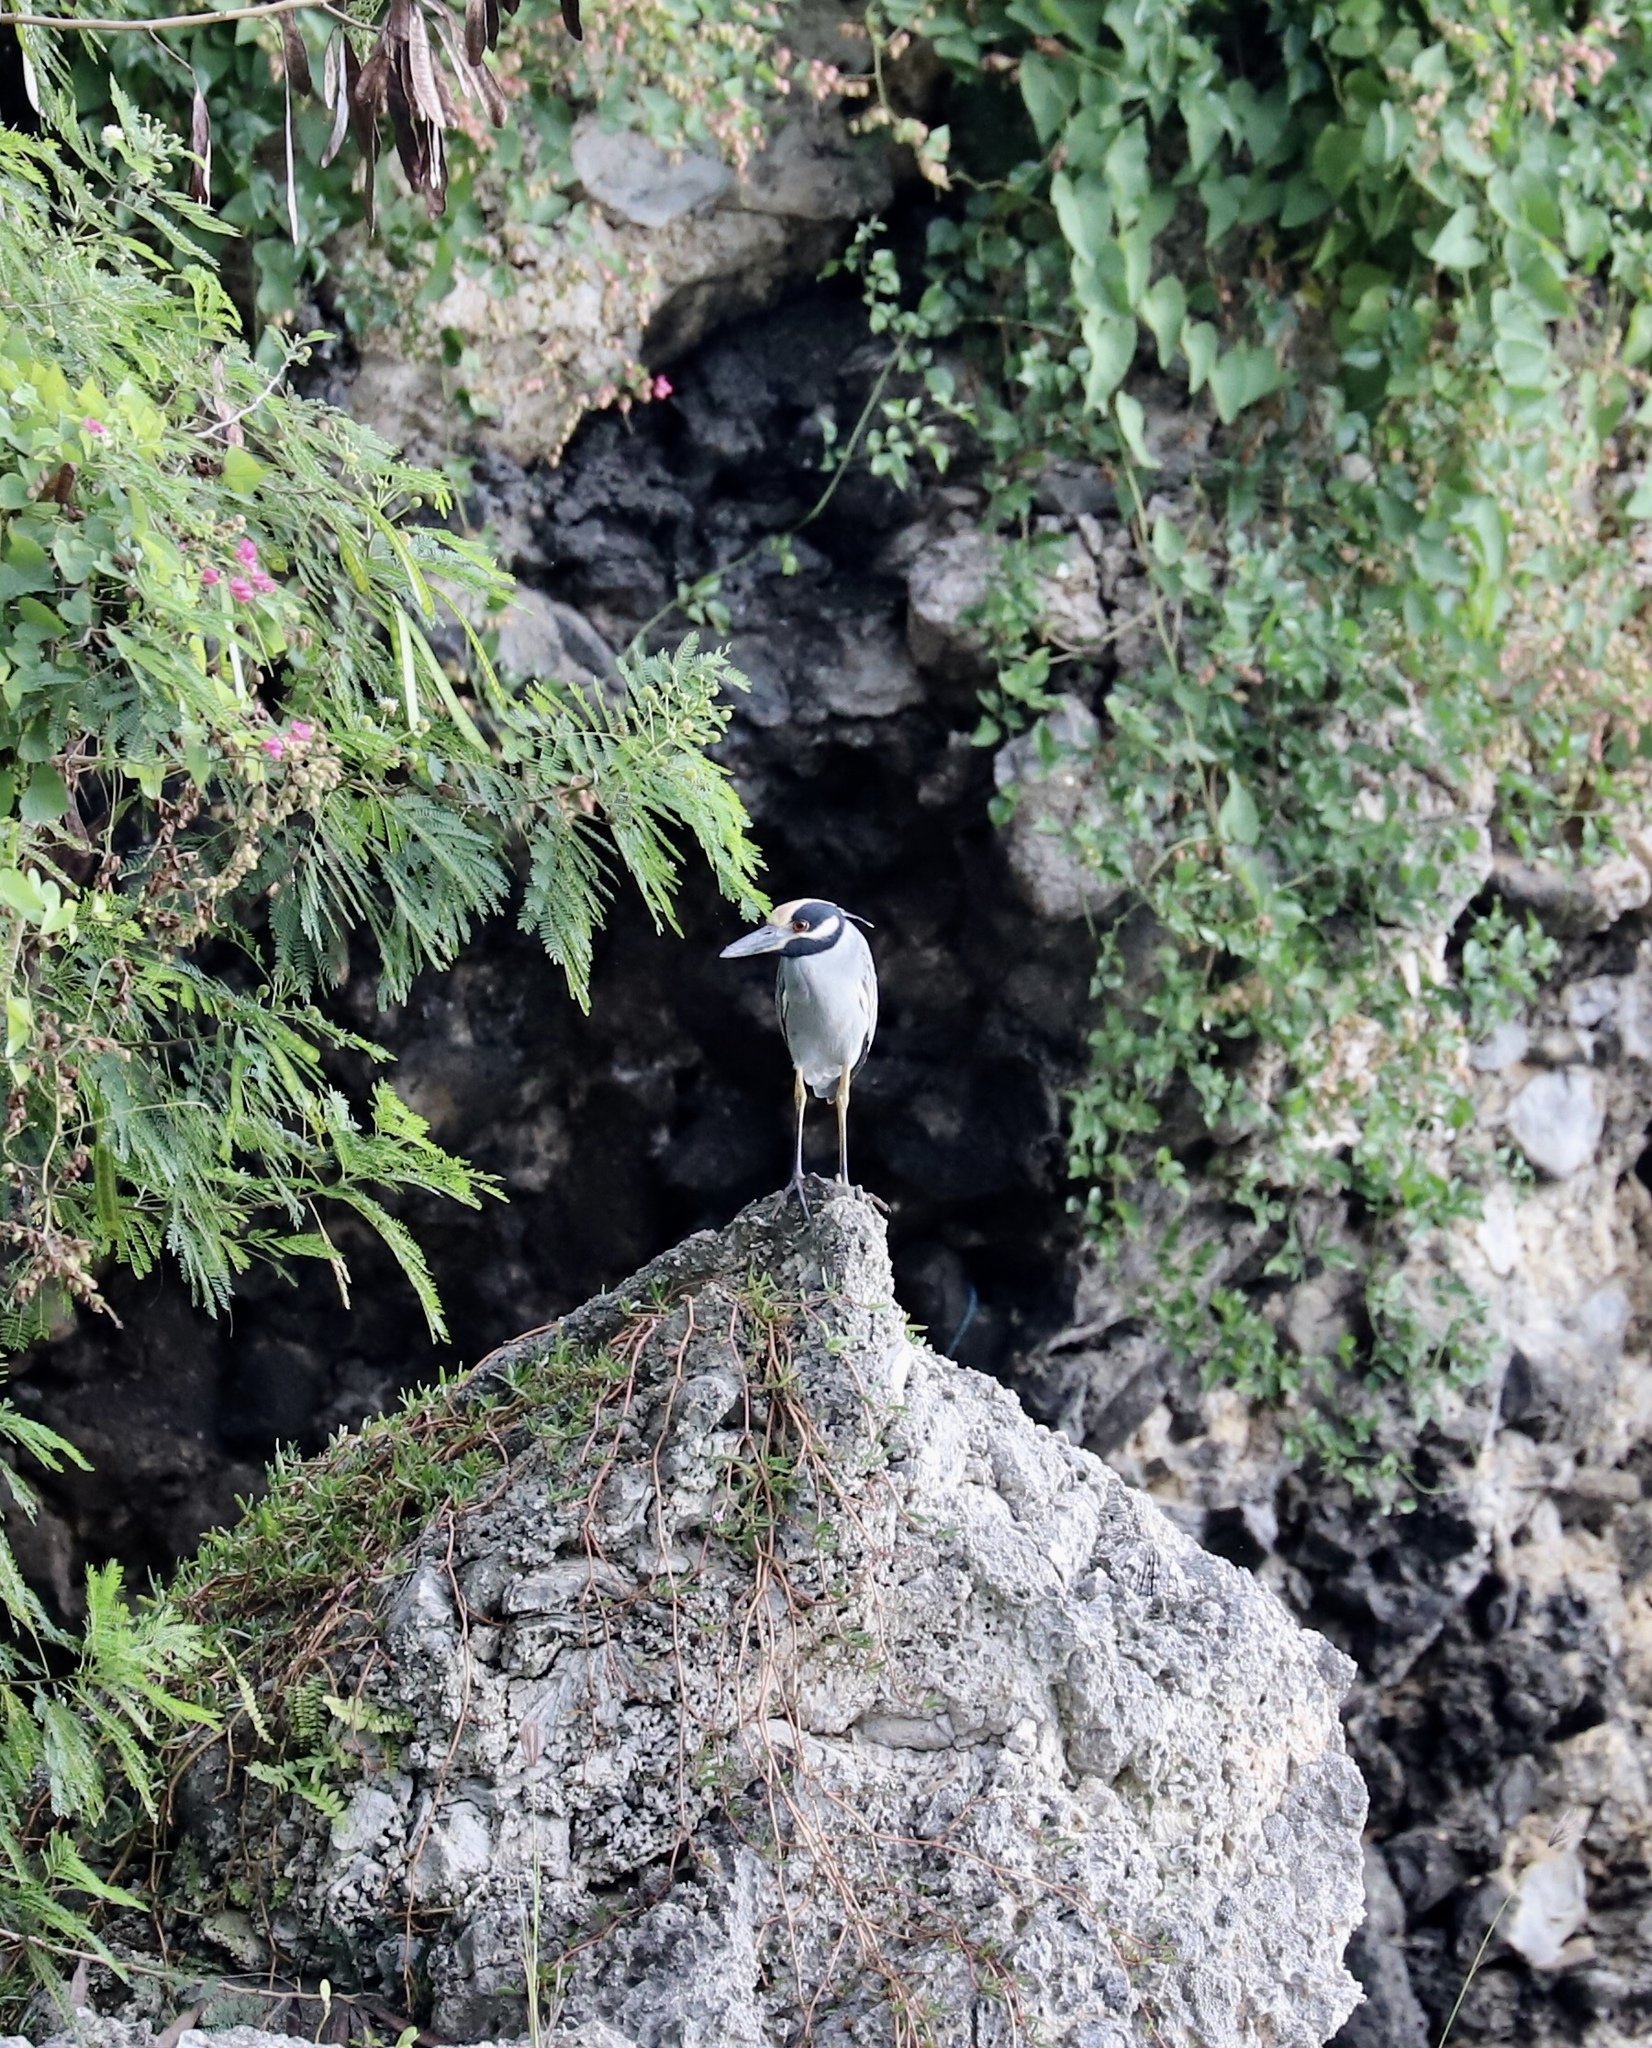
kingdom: Animalia
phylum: Chordata
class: Aves
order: Pelecaniformes
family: Ardeidae
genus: Nyctanassa
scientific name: Nyctanassa violacea
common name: Yellow-crowned night heron
